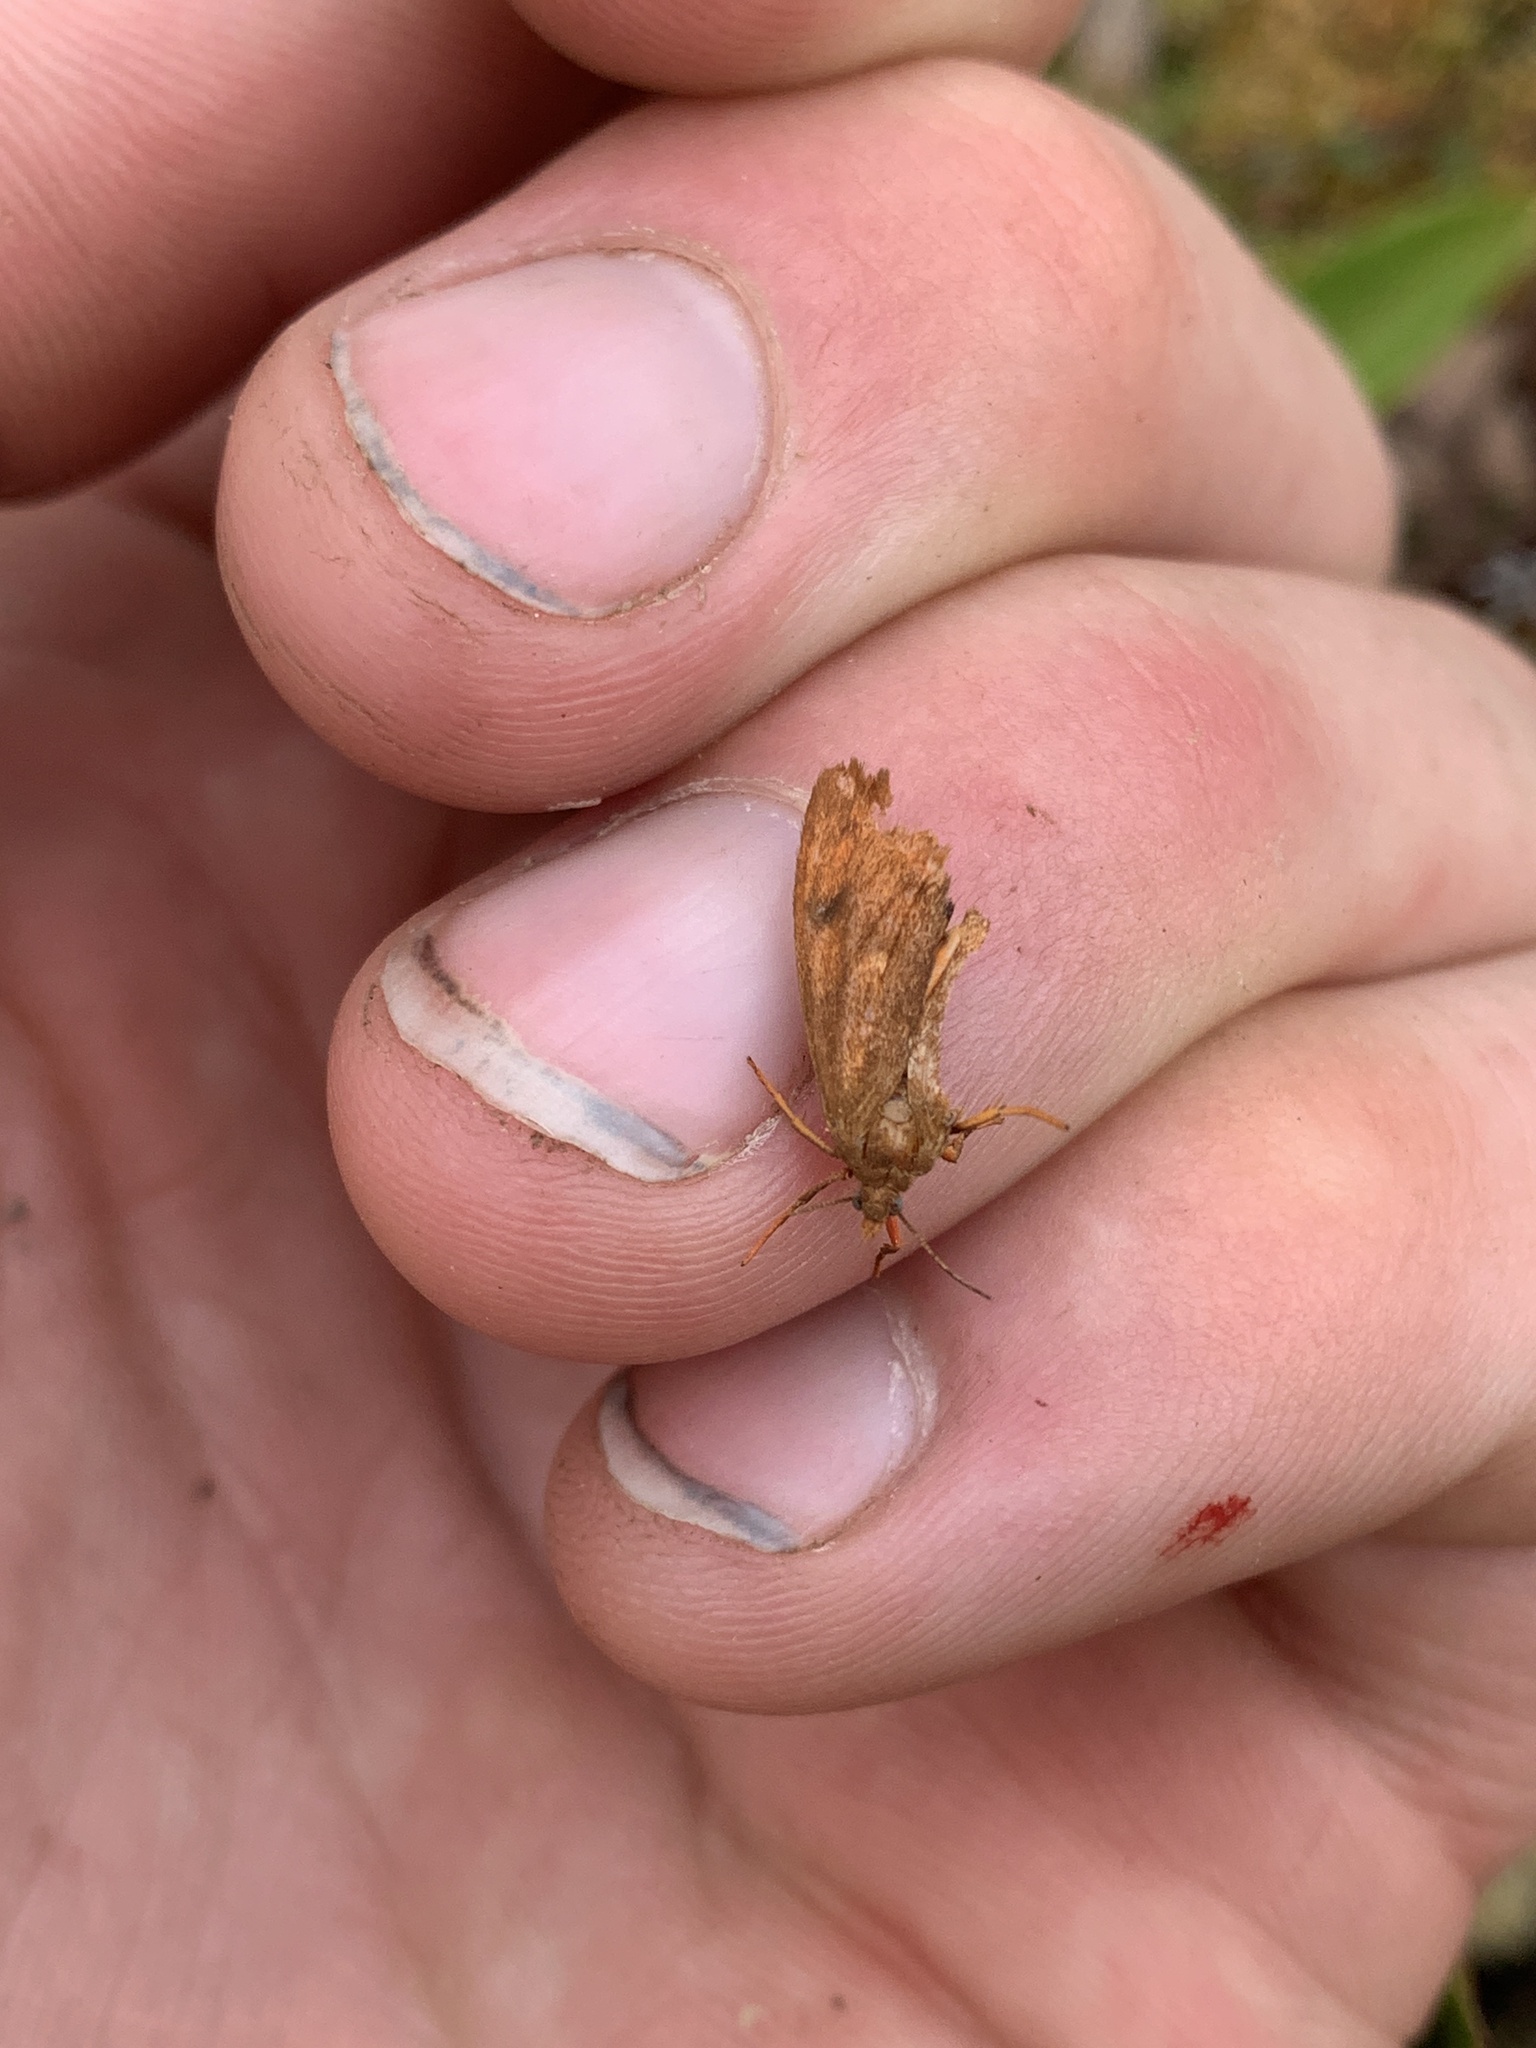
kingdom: Animalia
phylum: Arthropoda
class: Insecta
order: Lepidoptera
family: Erebidae
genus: Virbia
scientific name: Virbia ferruginosa
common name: Rusty virbia moth
